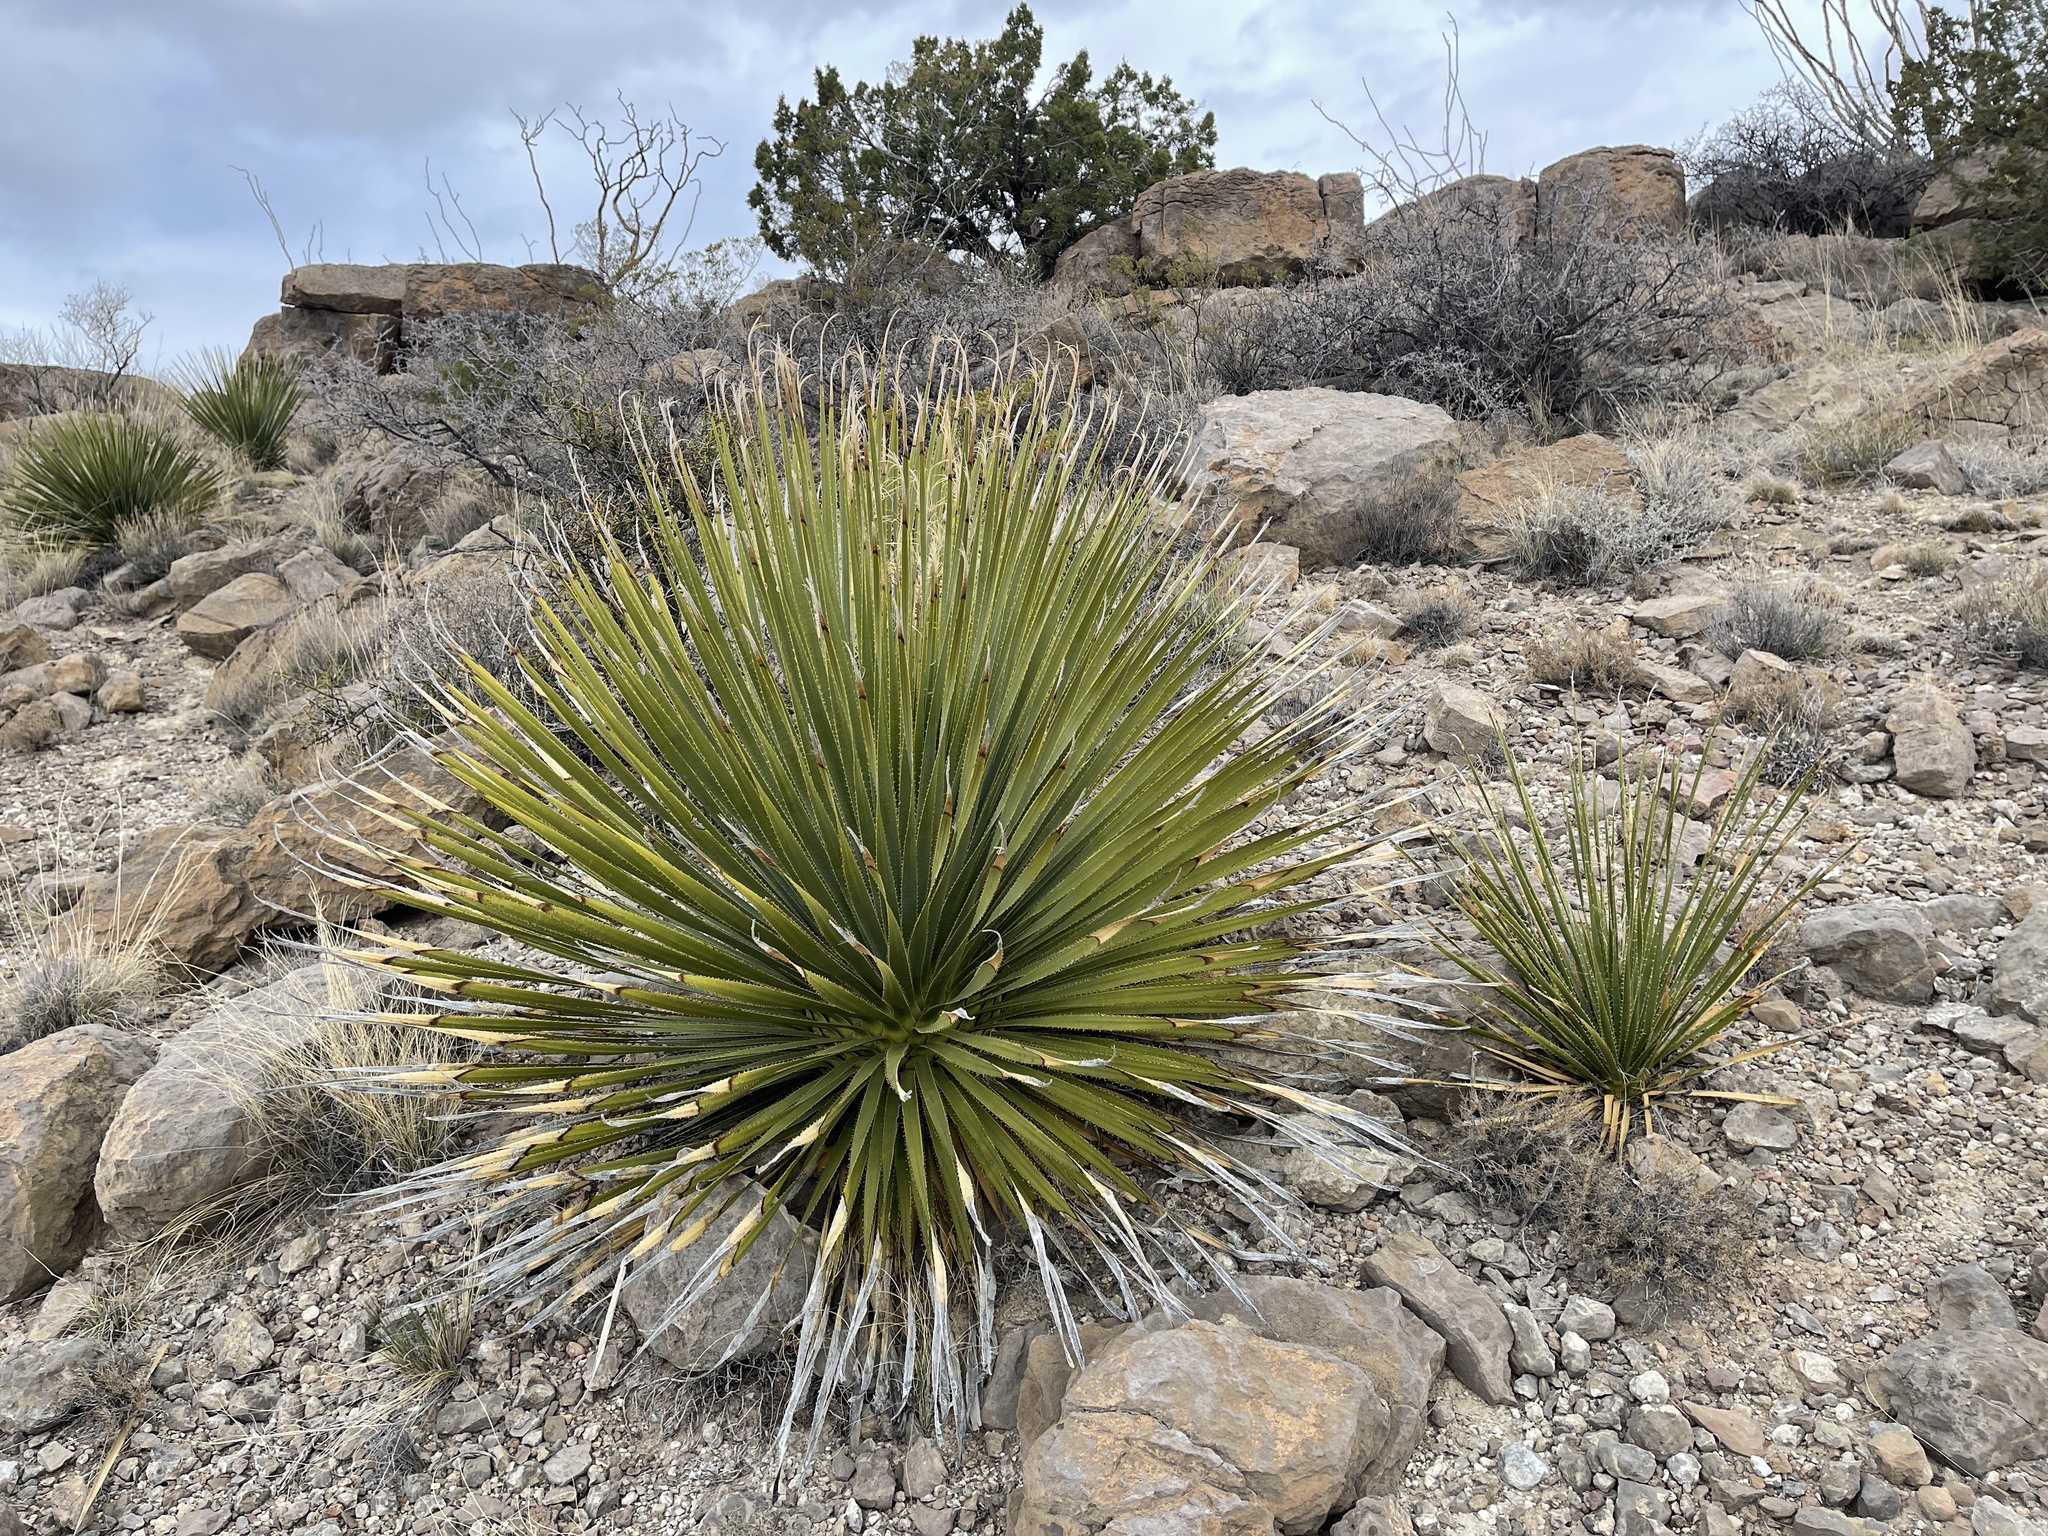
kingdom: Plantae
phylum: Tracheophyta
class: Liliopsida
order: Asparagales
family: Asparagaceae
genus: Dasylirion
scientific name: Dasylirion wheeleri
